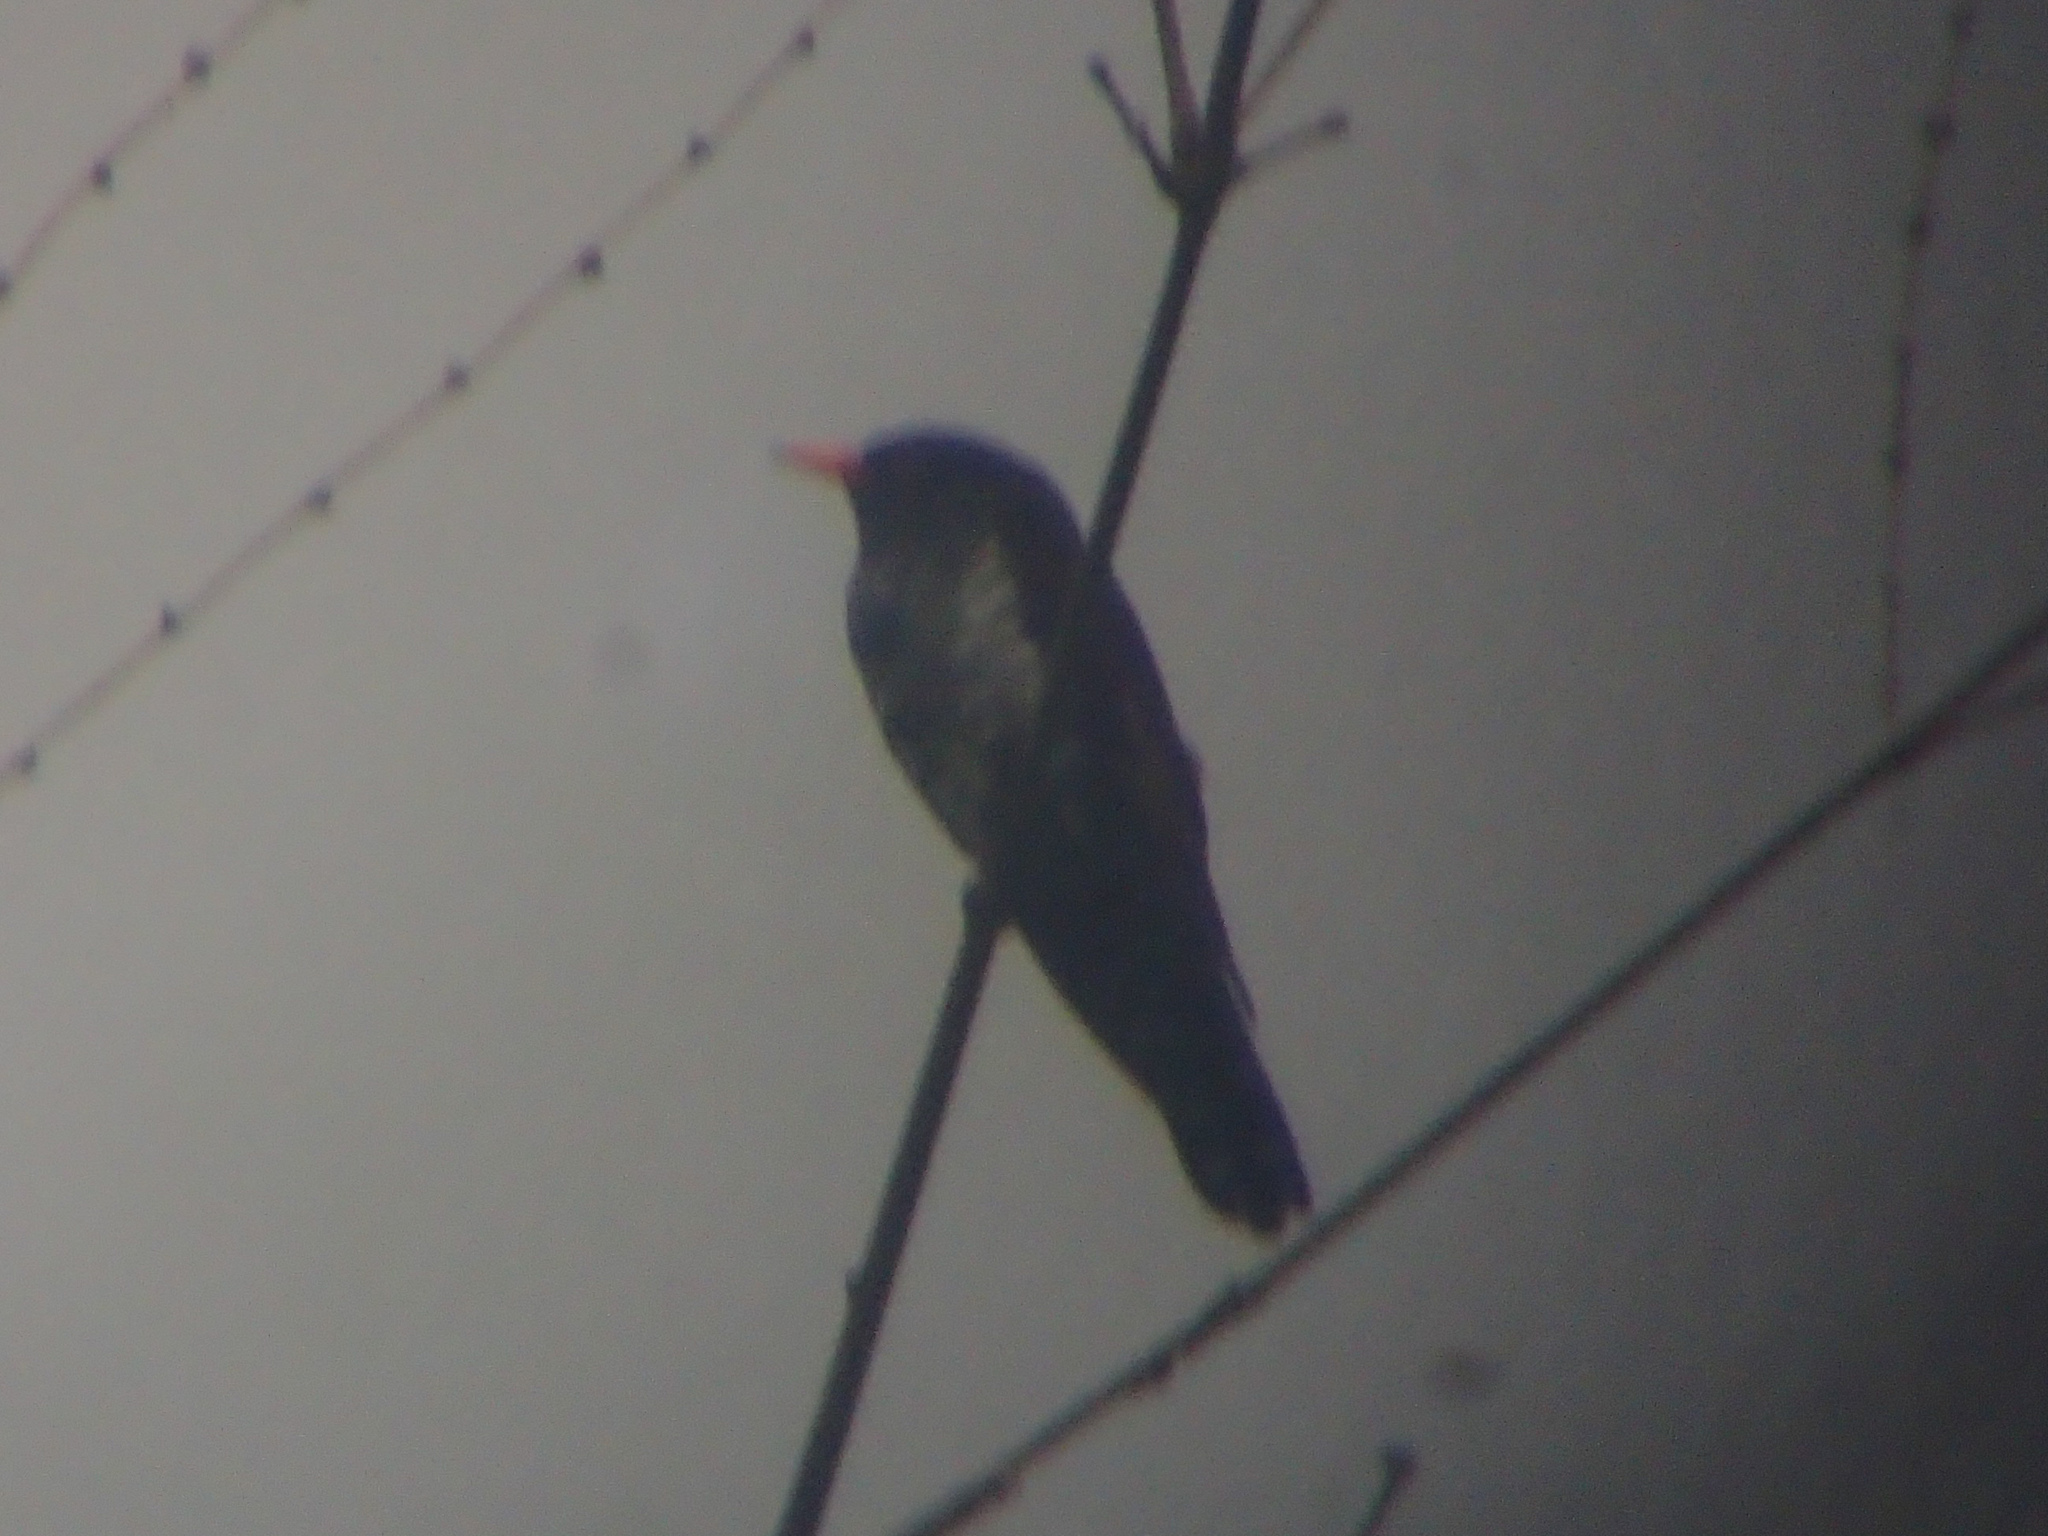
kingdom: Animalia
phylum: Chordata
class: Aves
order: Cuculiformes
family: Cuculidae
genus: Chrysococcyx
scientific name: Chrysococcyx xanthorhynchus
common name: Violet cuckoo
